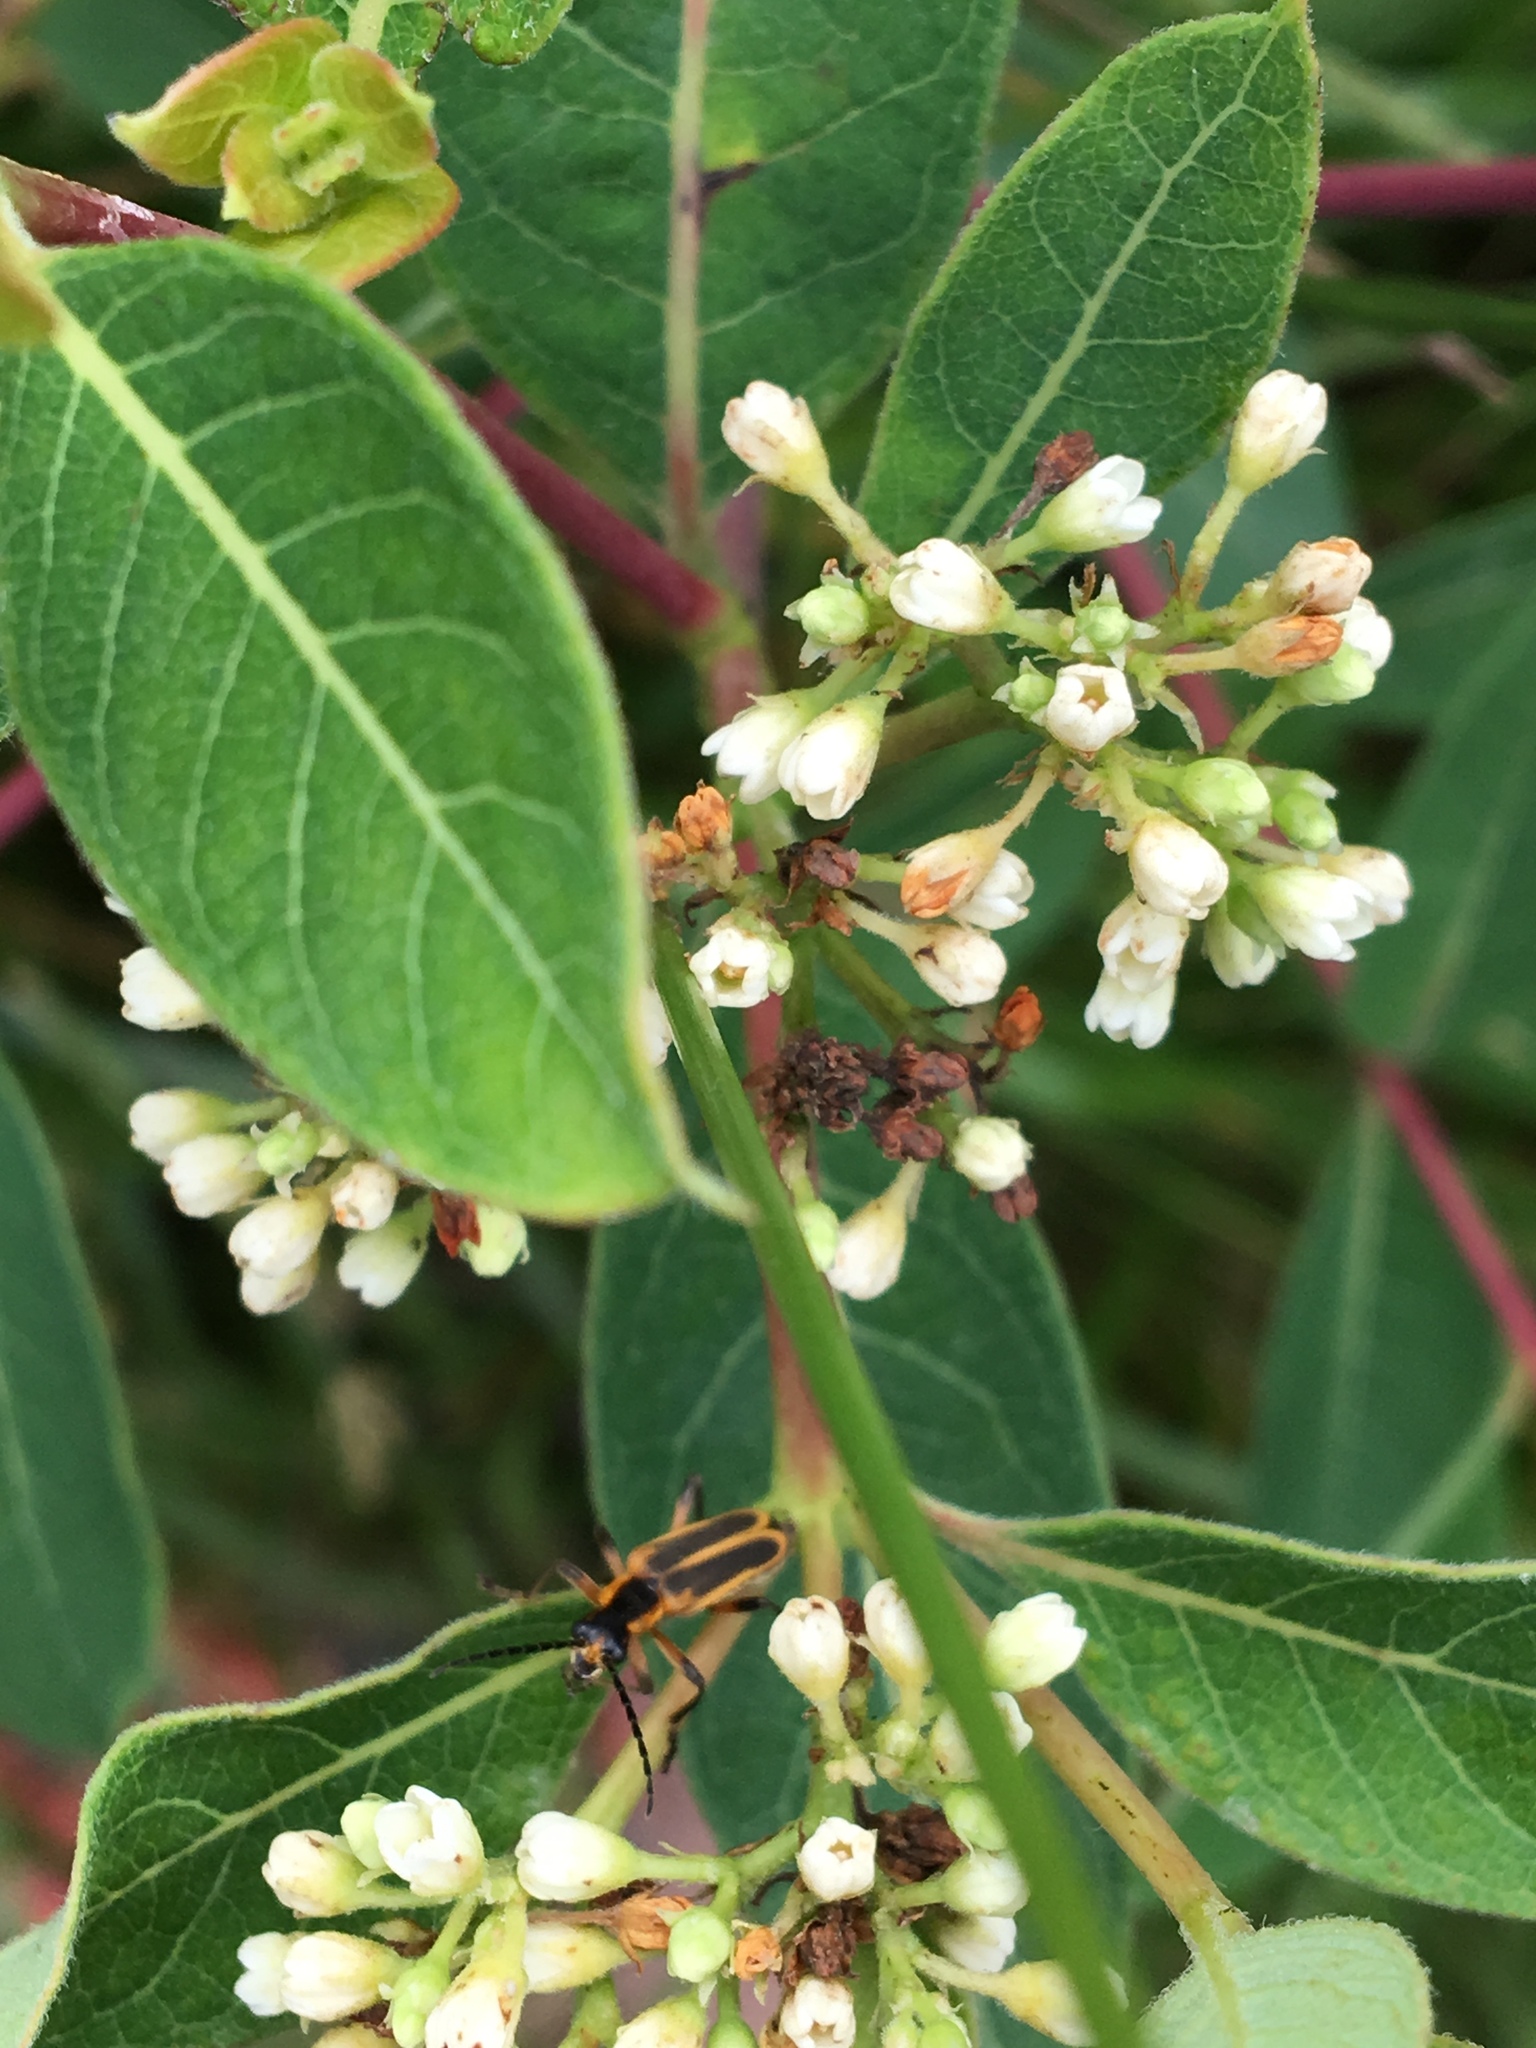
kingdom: Animalia
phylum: Arthropoda
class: Insecta
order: Coleoptera
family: Cantharidae
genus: Chauliognathus
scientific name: Chauliognathus marginatus
